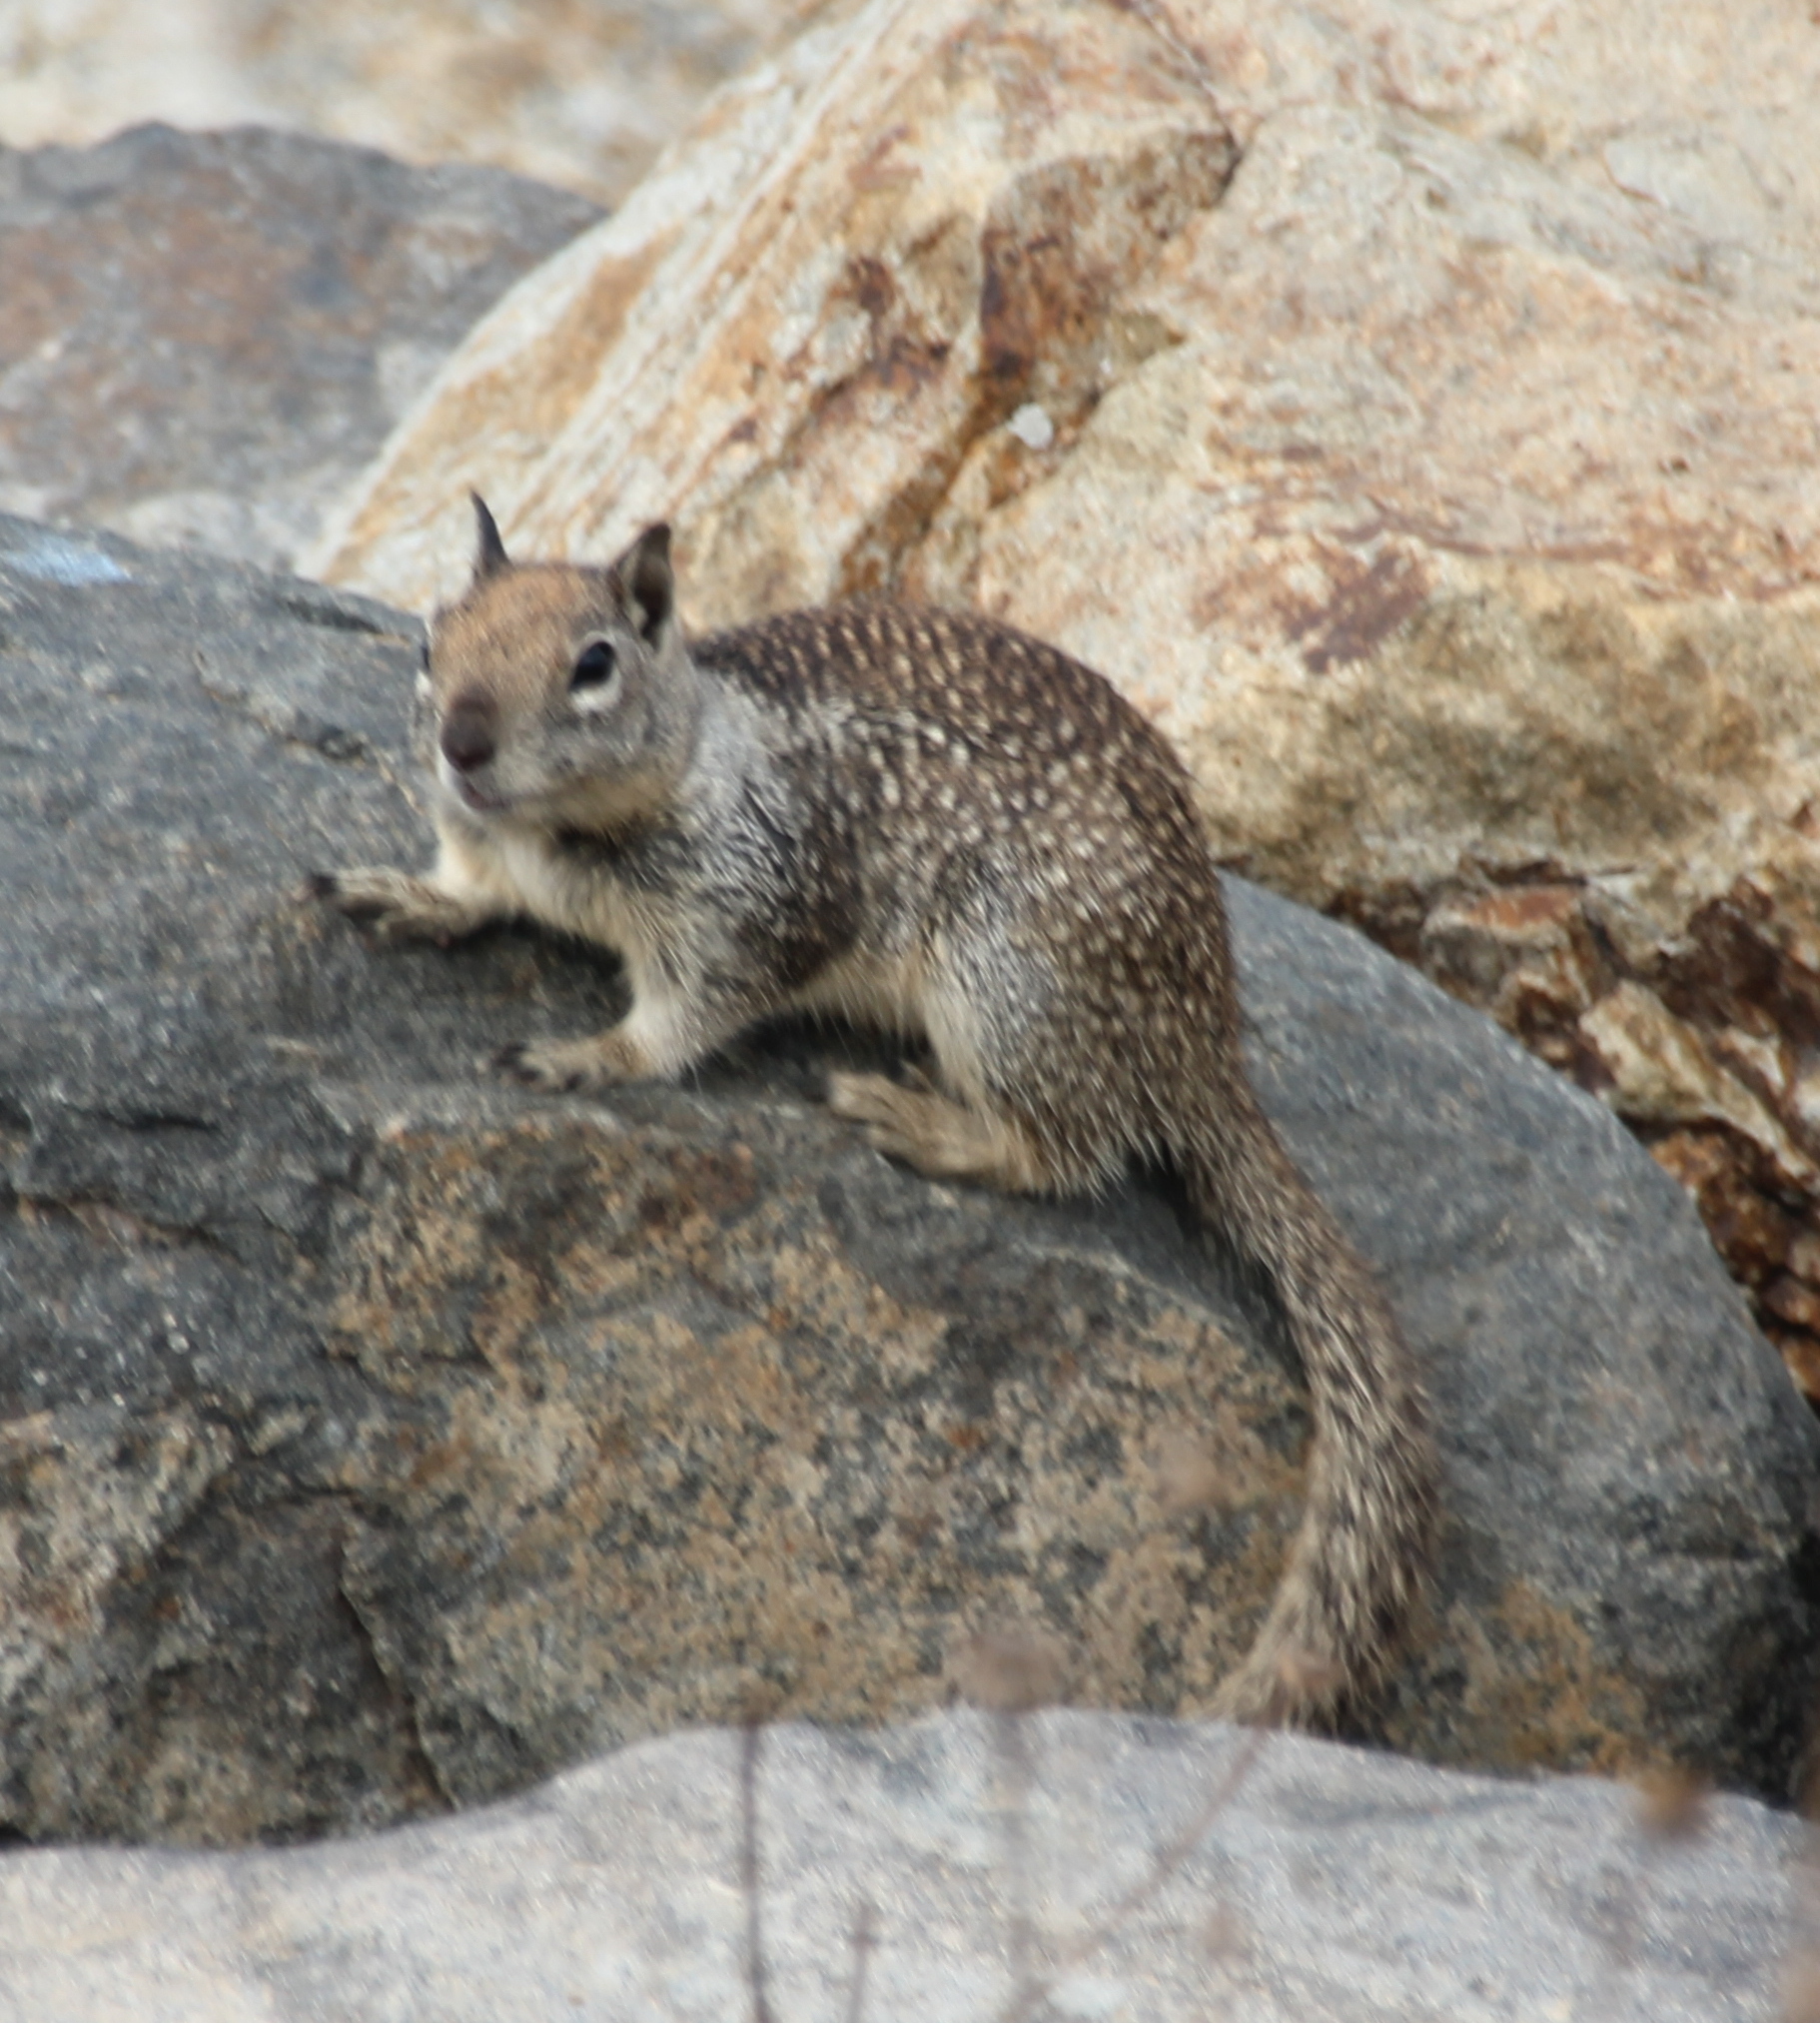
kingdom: Animalia
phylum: Chordata
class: Mammalia
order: Rodentia
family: Sciuridae
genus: Otospermophilus
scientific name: Otospermophilus beecheyi
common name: California ground squirrel
